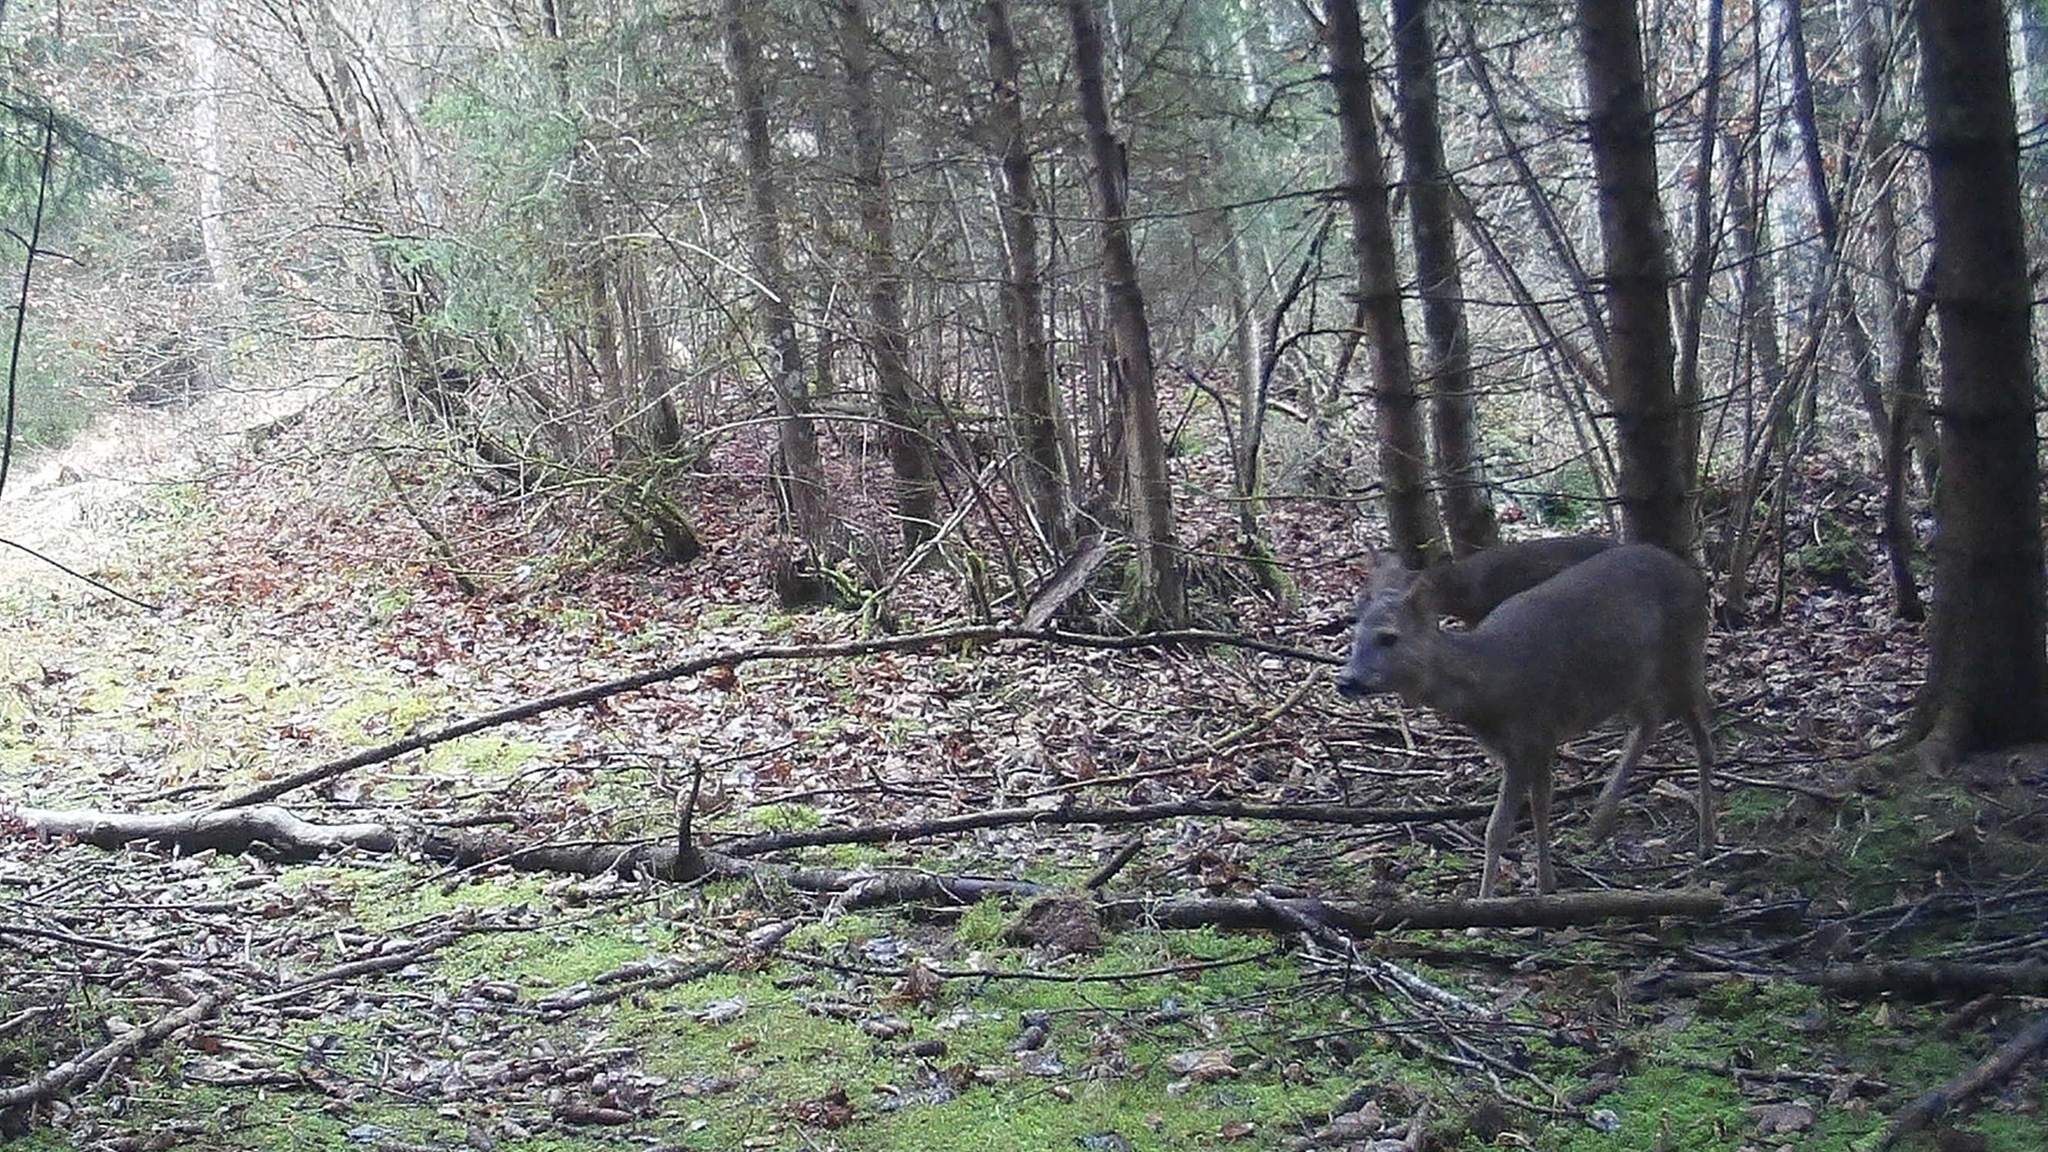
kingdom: Animalia
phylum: Chordata
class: Mammalia
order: Artiodactyla
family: Cervidae
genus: Capreolus
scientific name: Capreolus capreolus
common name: Western roe deer
